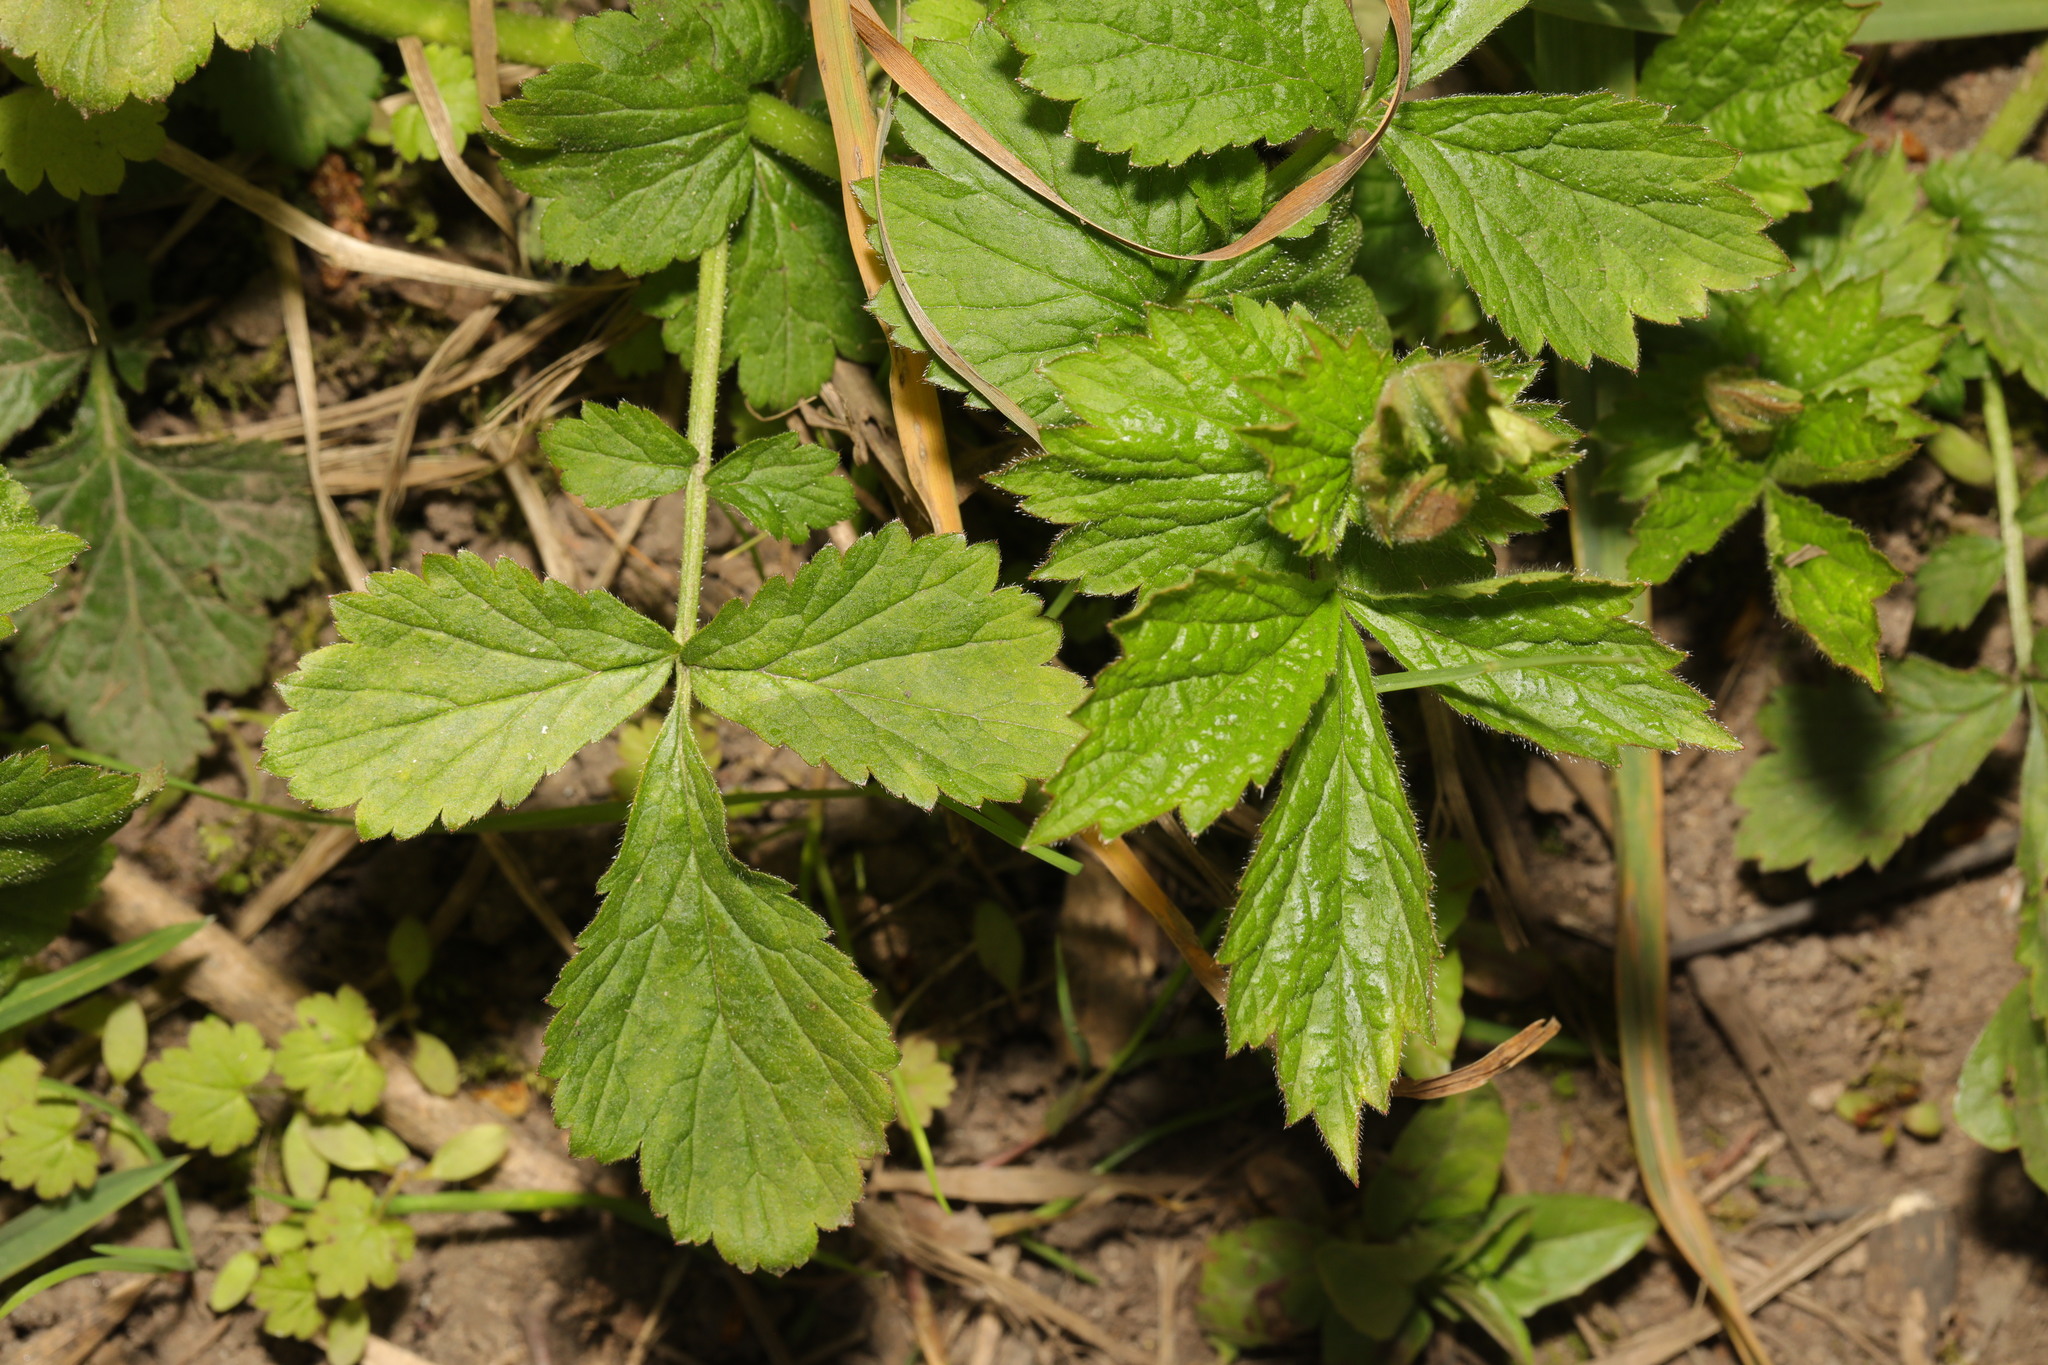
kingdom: Plantae
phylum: Tracheophyta
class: Magnoliopsida
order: Rosales
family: Rosaceae
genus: Geum
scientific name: Geum urbanum
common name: Wood avens
